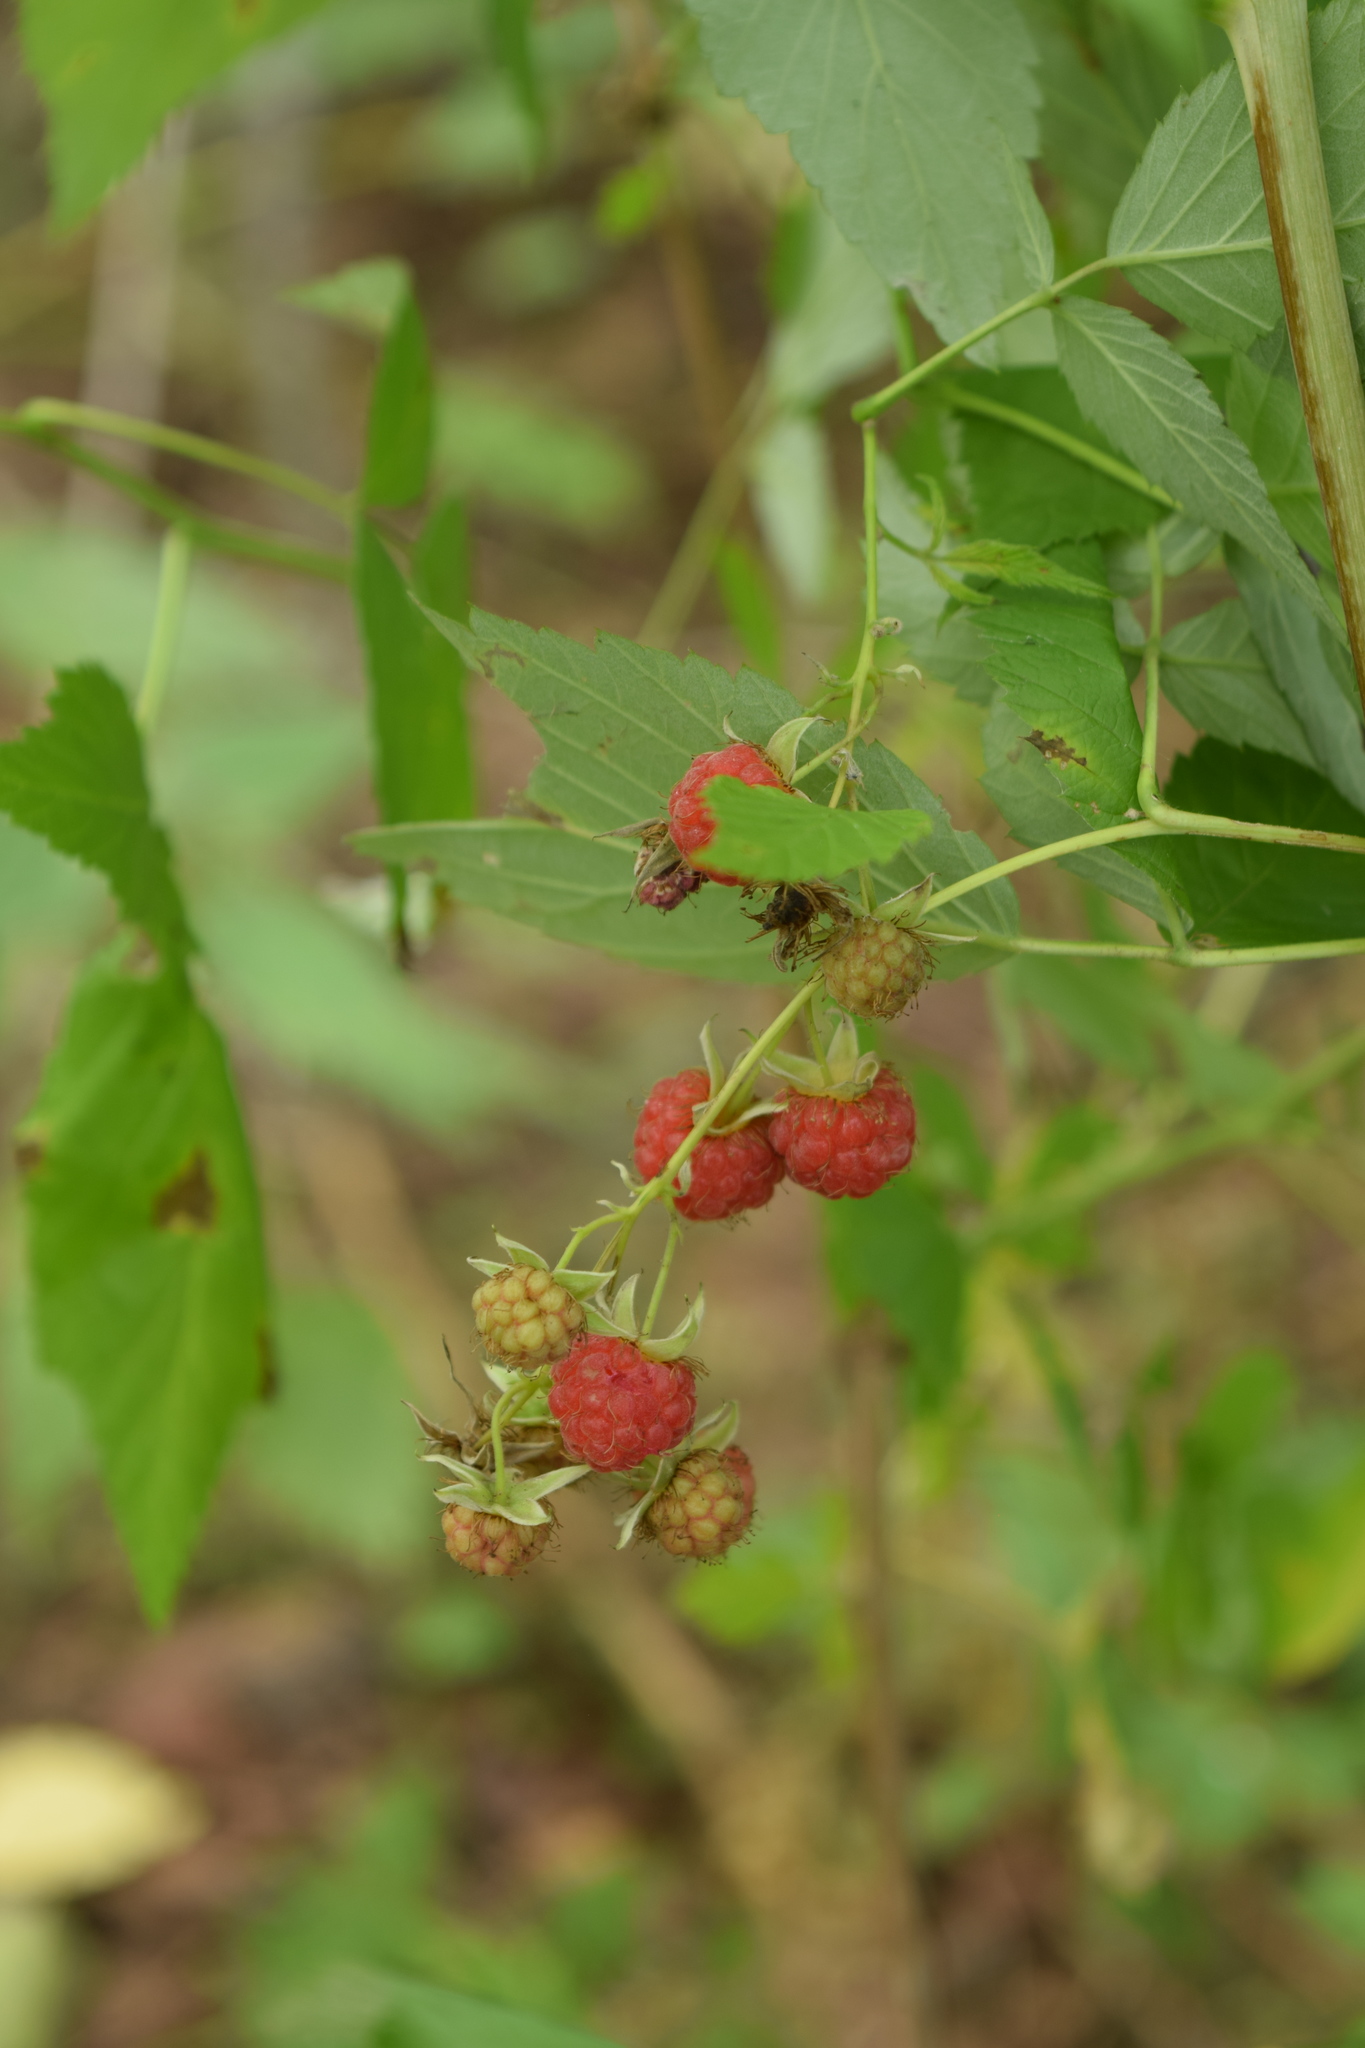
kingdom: Plantae
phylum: Tracheophyta
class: Magnoliopsida
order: Rosales
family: Rosaceae
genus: Rubus
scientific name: Rubus idaeus
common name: Raspberry
